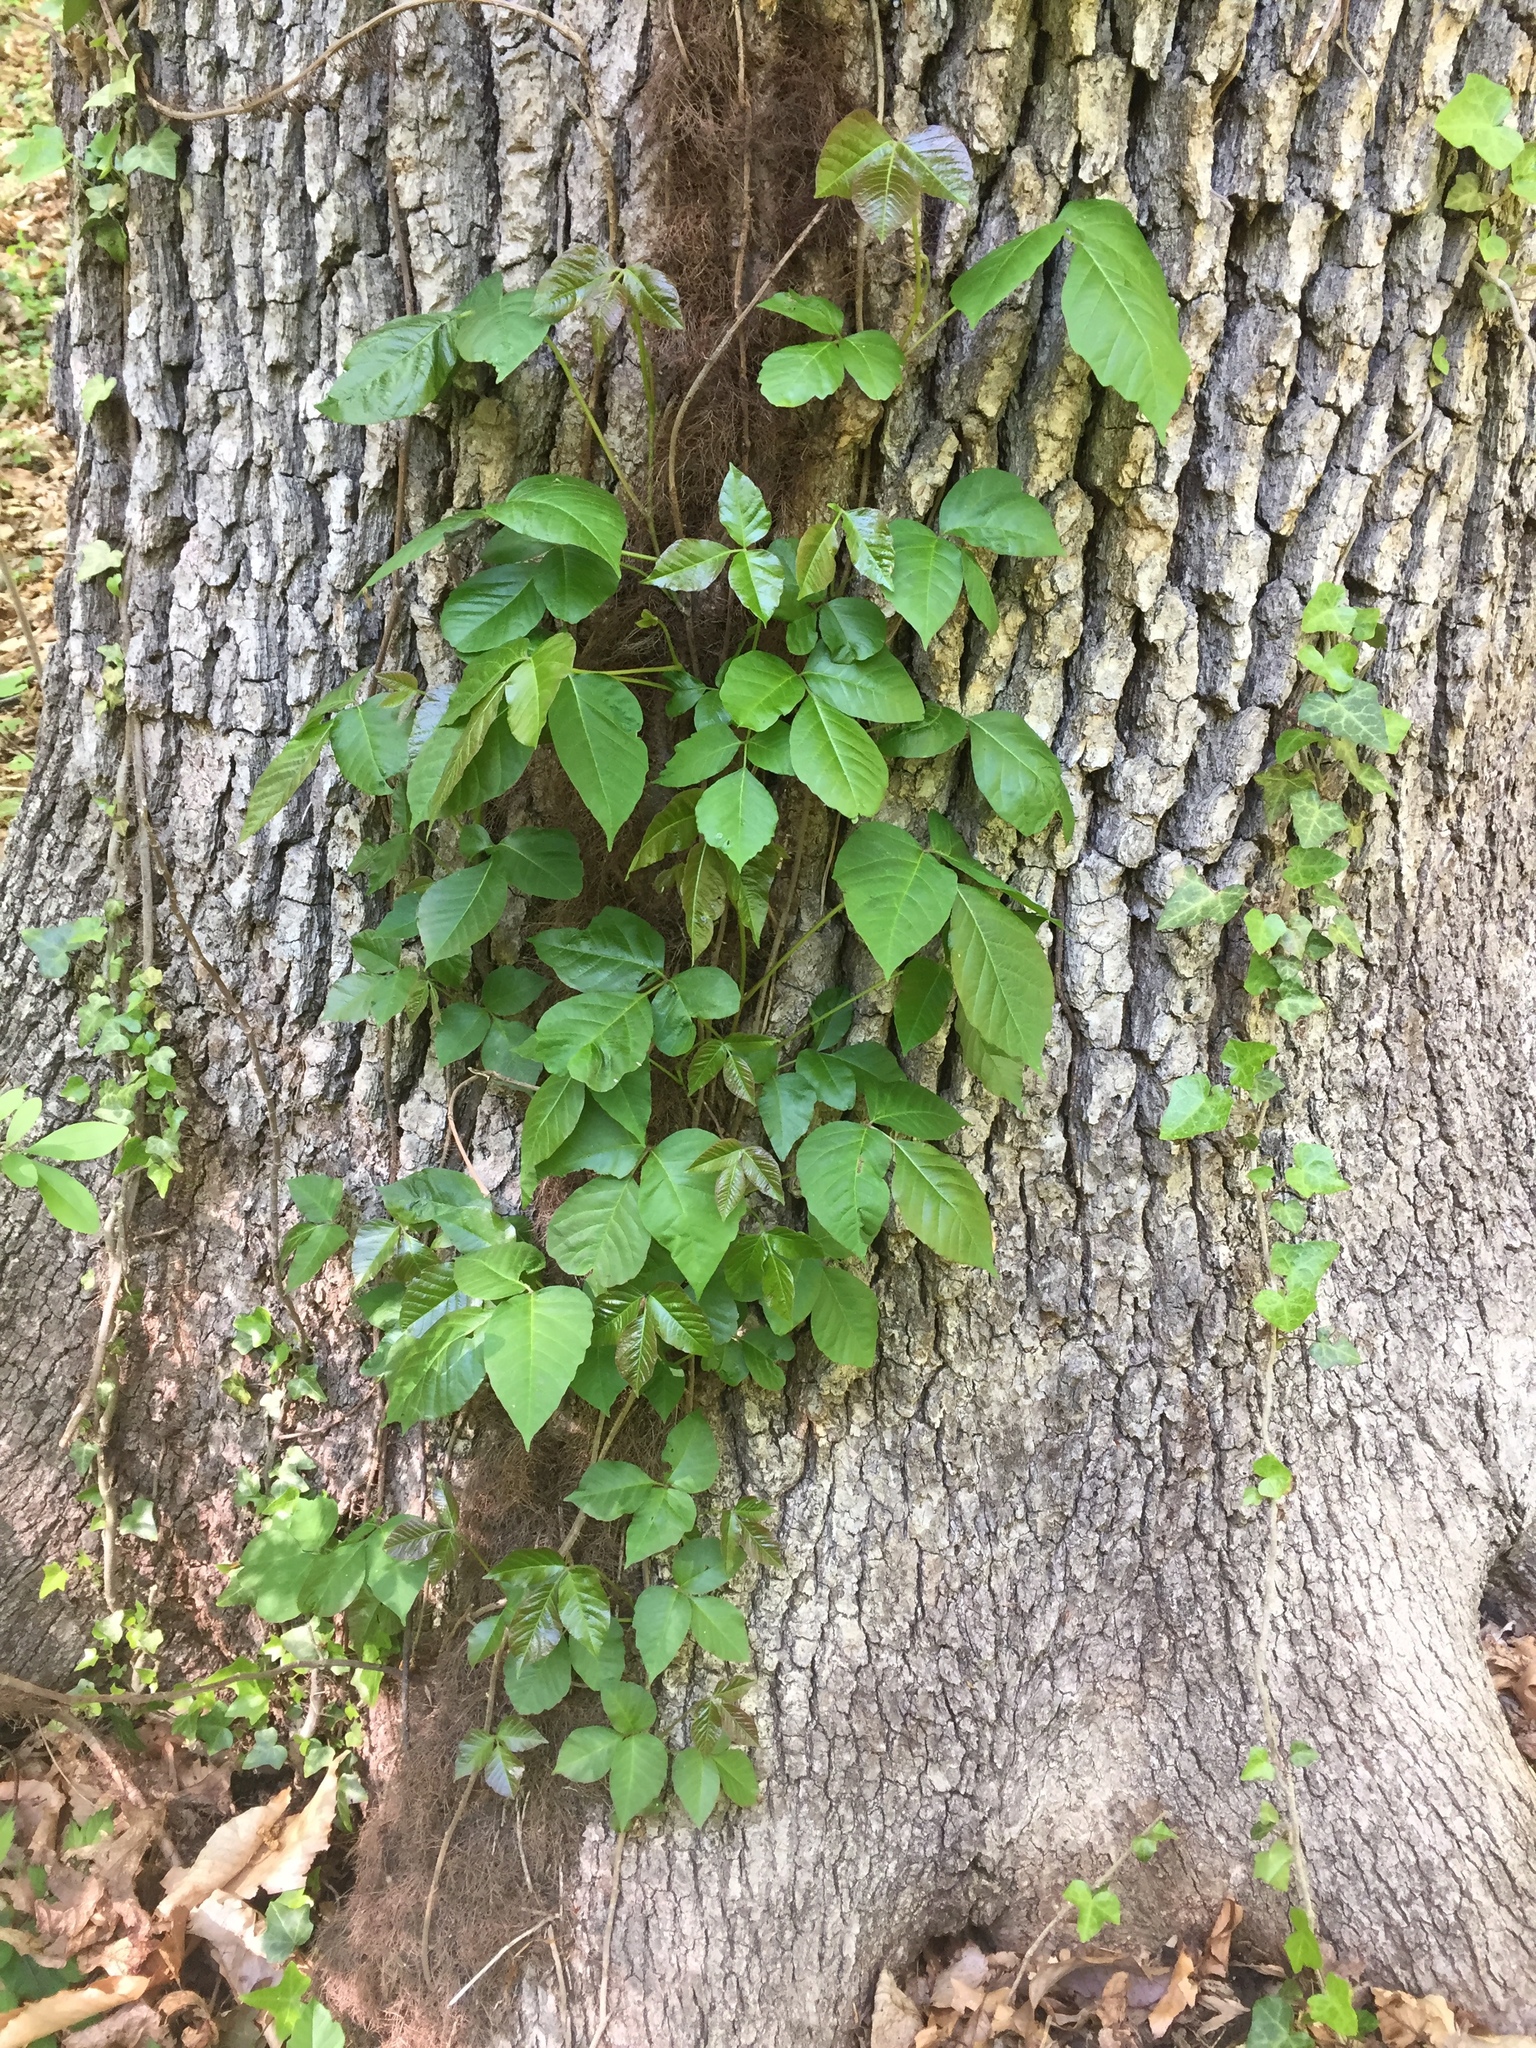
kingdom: Plantae
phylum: Tracheophyta
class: Magnoliopsida
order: Sapindales
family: Anacardiaceae
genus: Toxicodendron
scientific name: Toxicodendron radicans
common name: Poison ivy
